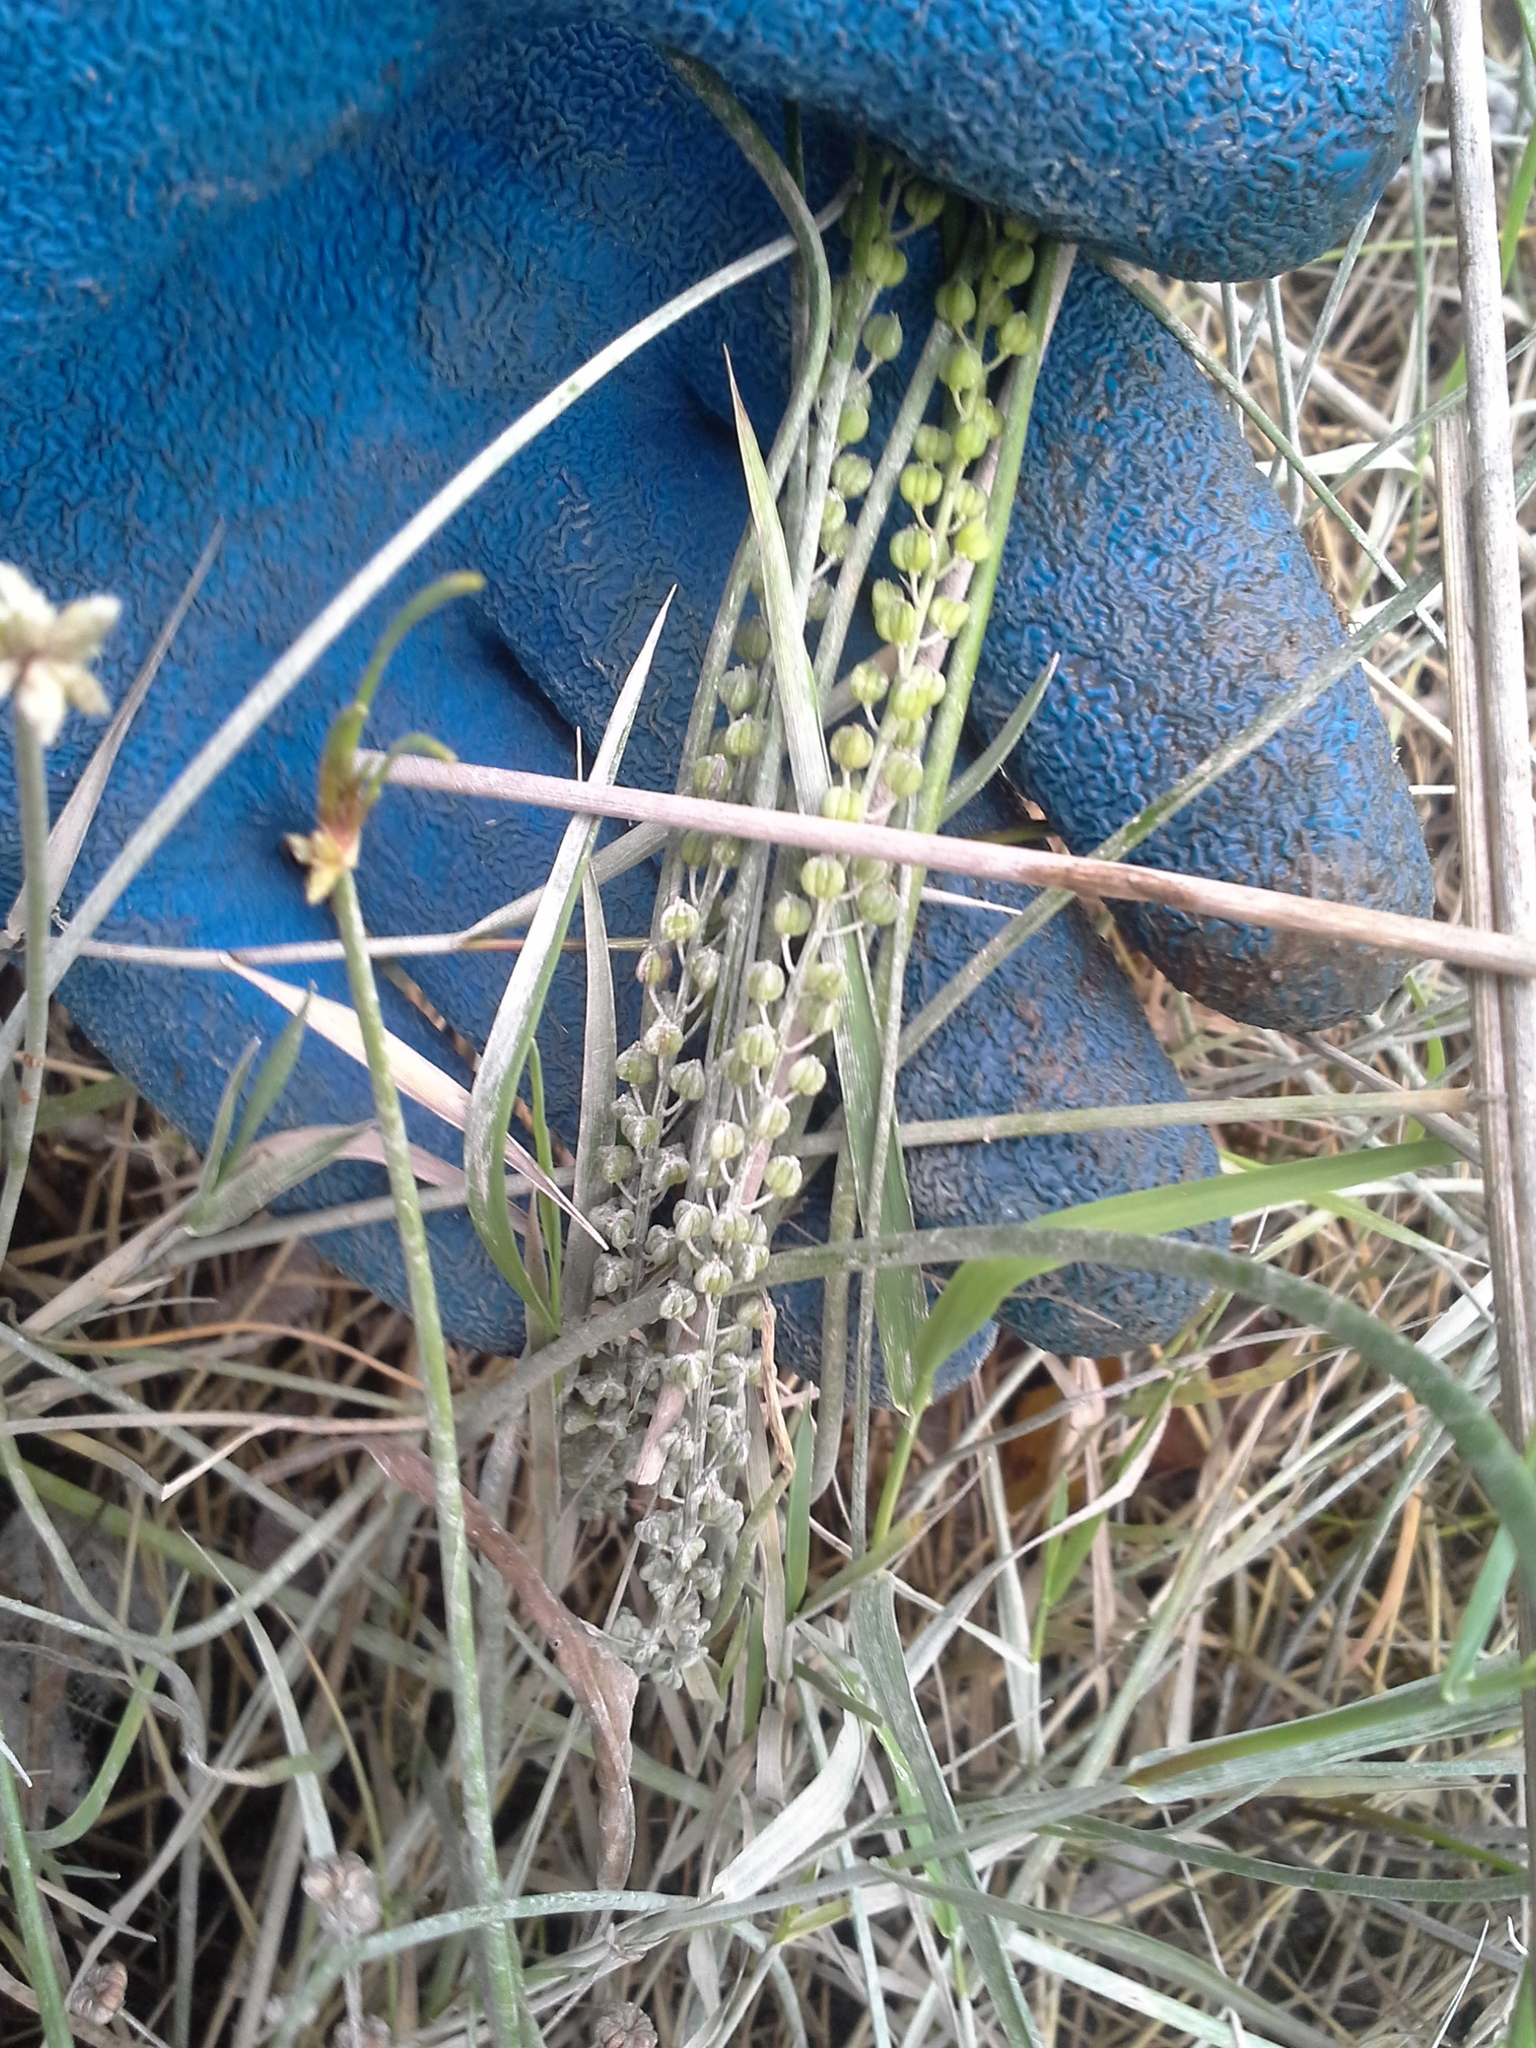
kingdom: Plantae
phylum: Tracheophyta
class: Liliopsida
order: Alismatales
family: Juncaginaceae
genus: Triglochin
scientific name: Triglochin striata
